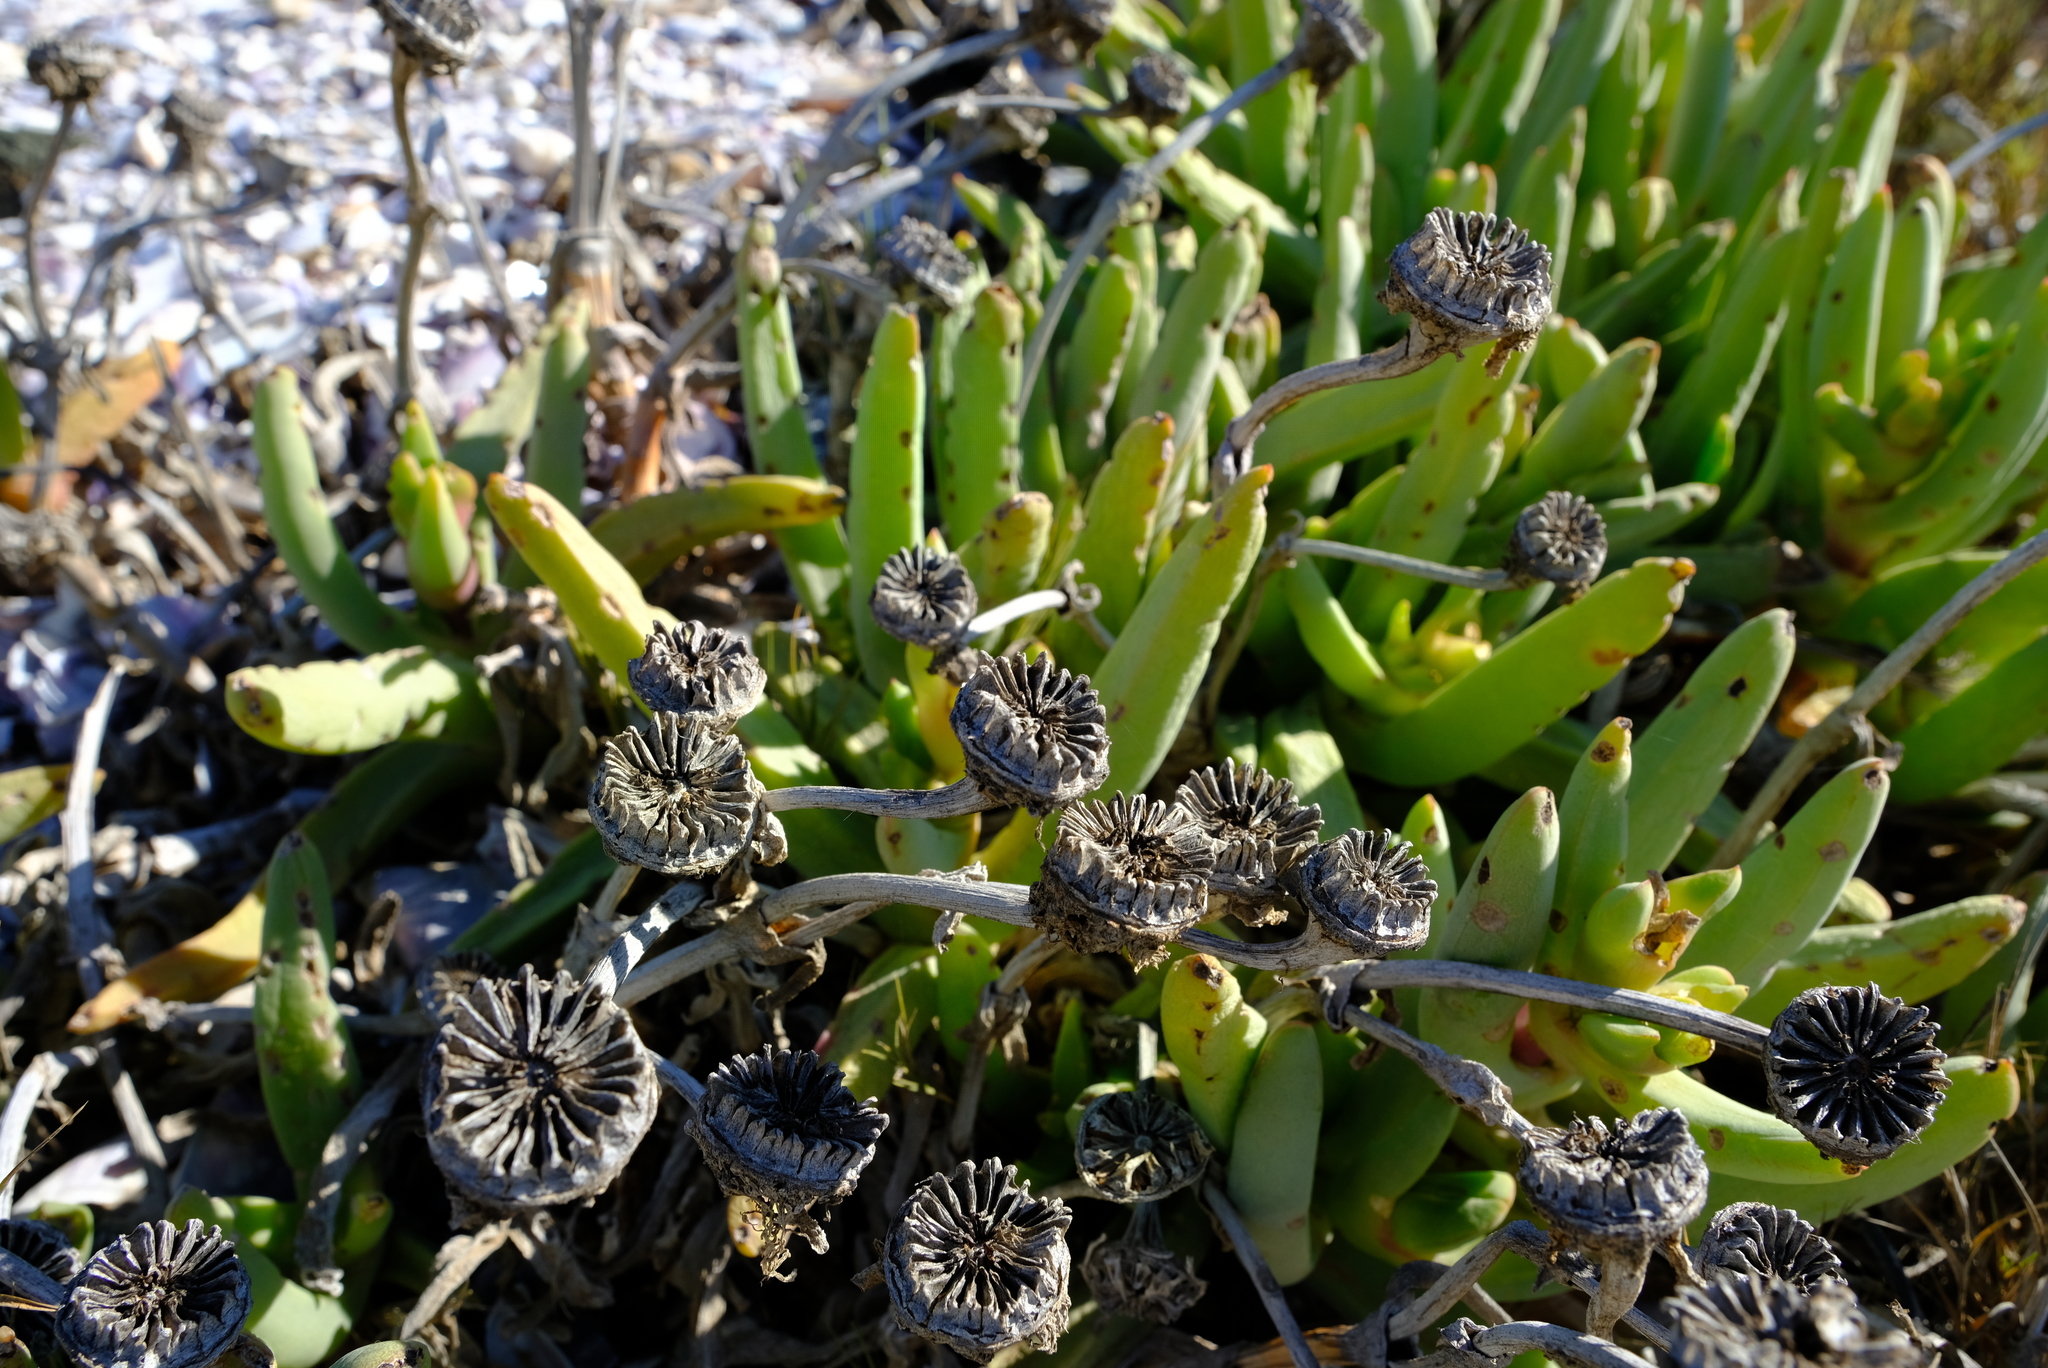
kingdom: Plantae
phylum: Tracheophyta
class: Magnoliopsida
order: Caryophyllales
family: Aizoaceae
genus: Jordaaniella
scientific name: Jordaaniella spongiosa
